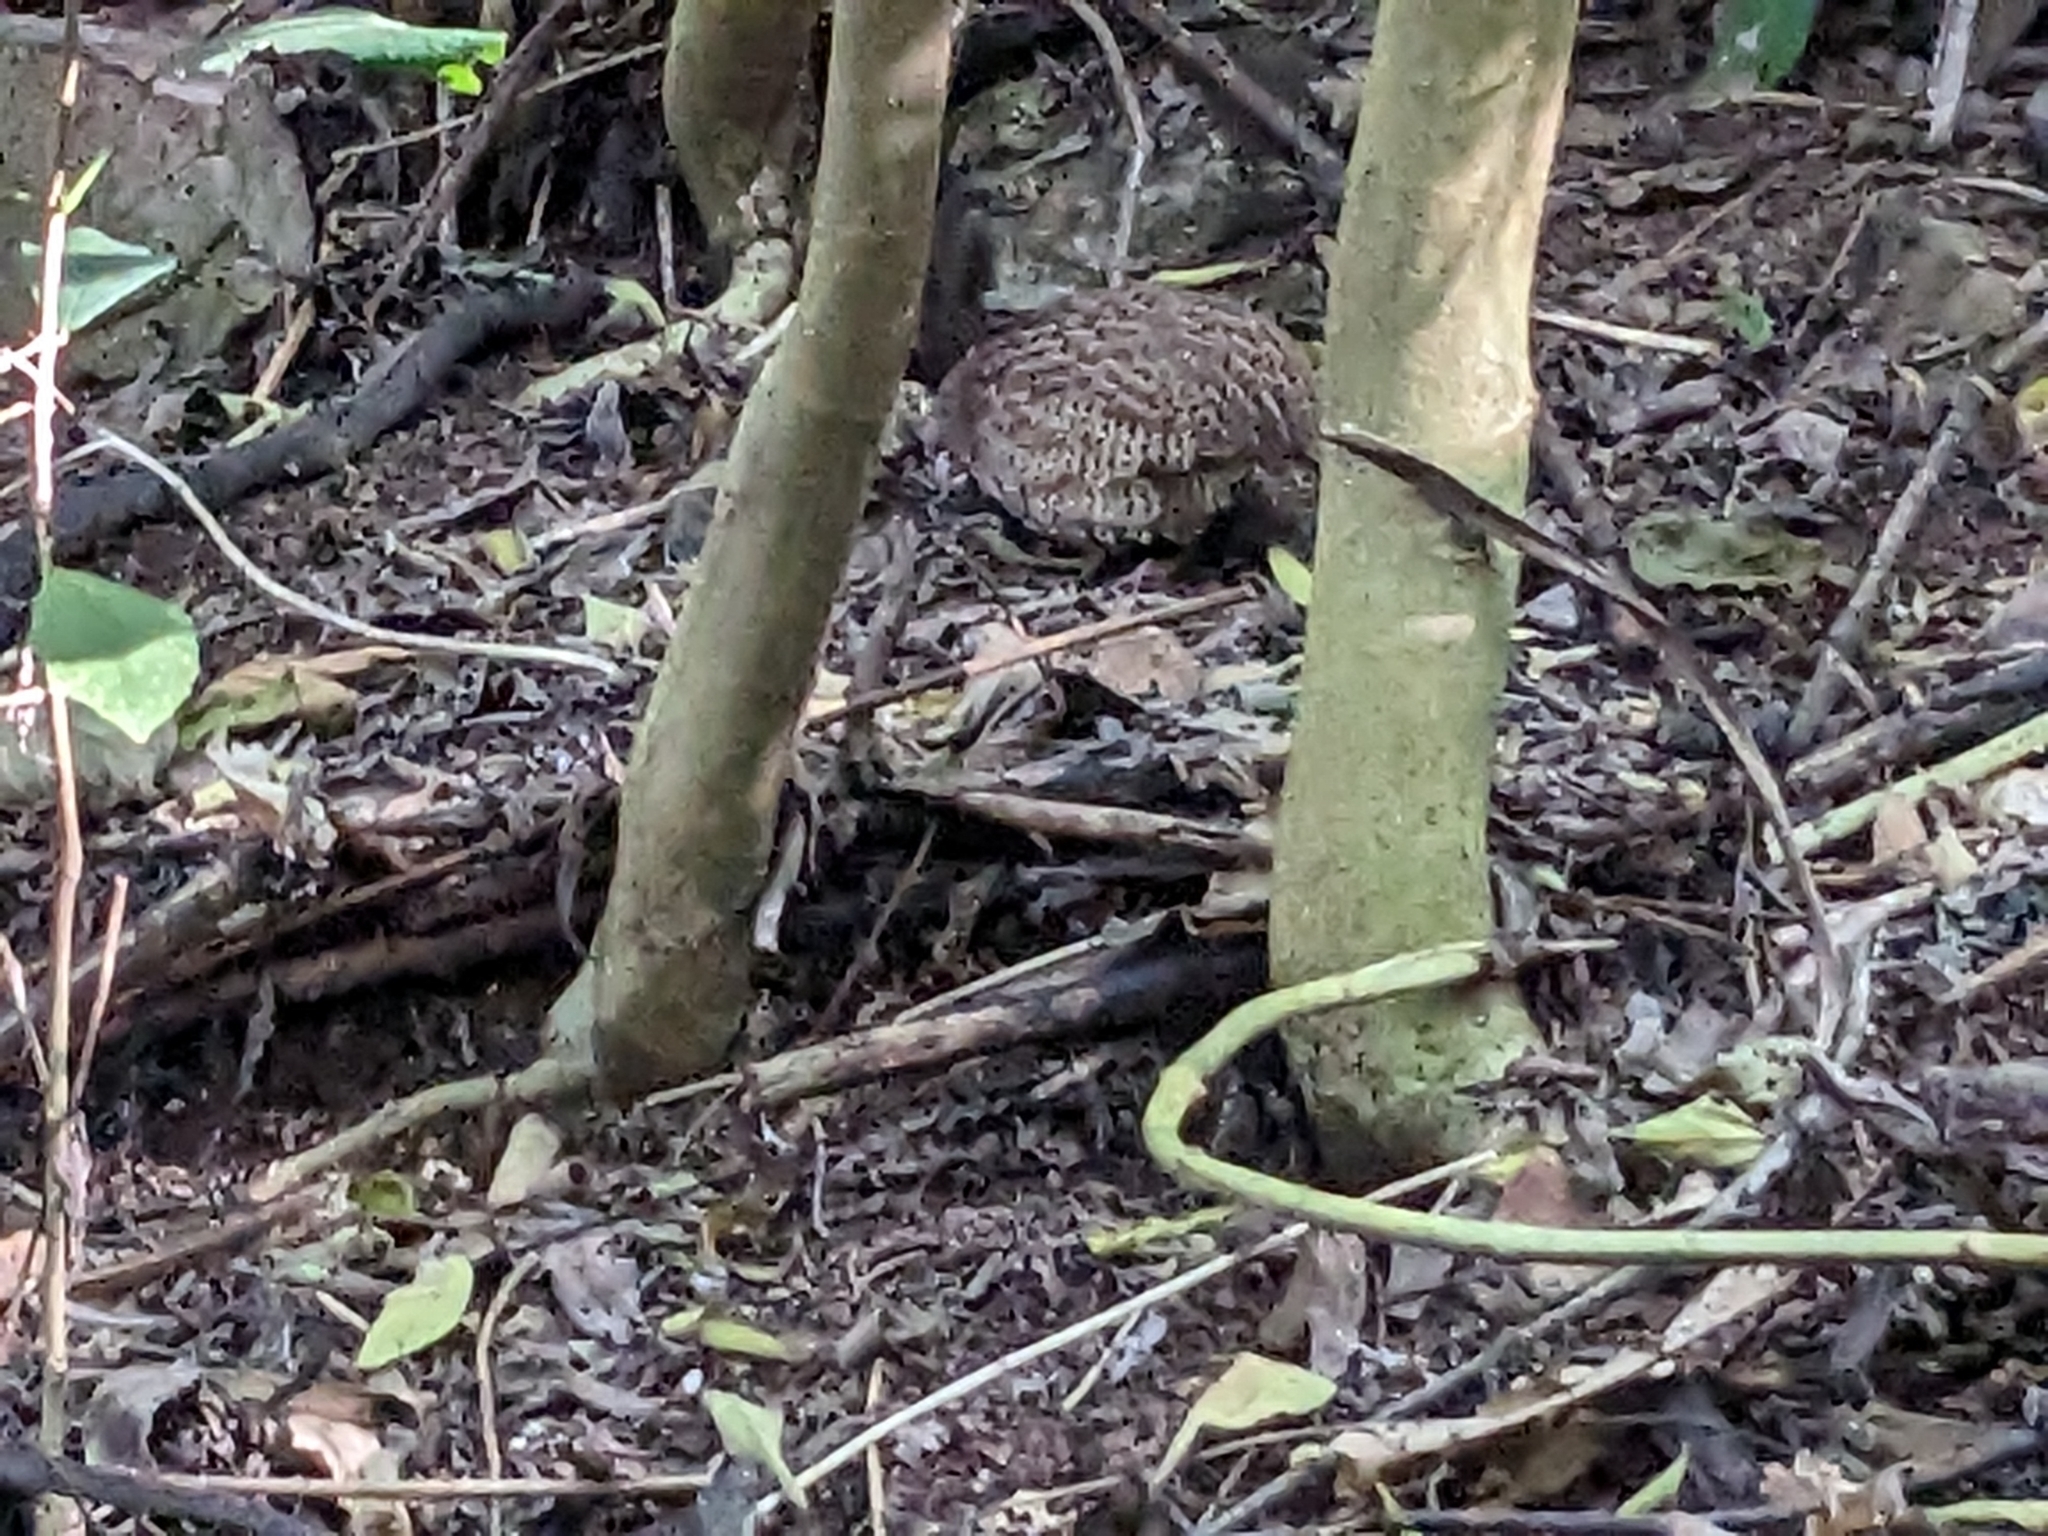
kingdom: Animalia
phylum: Chordata
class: Aves
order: Galliformes
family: Phasianidae
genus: Synoicus
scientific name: Synoicus ypsilophorus
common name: Brown quail
